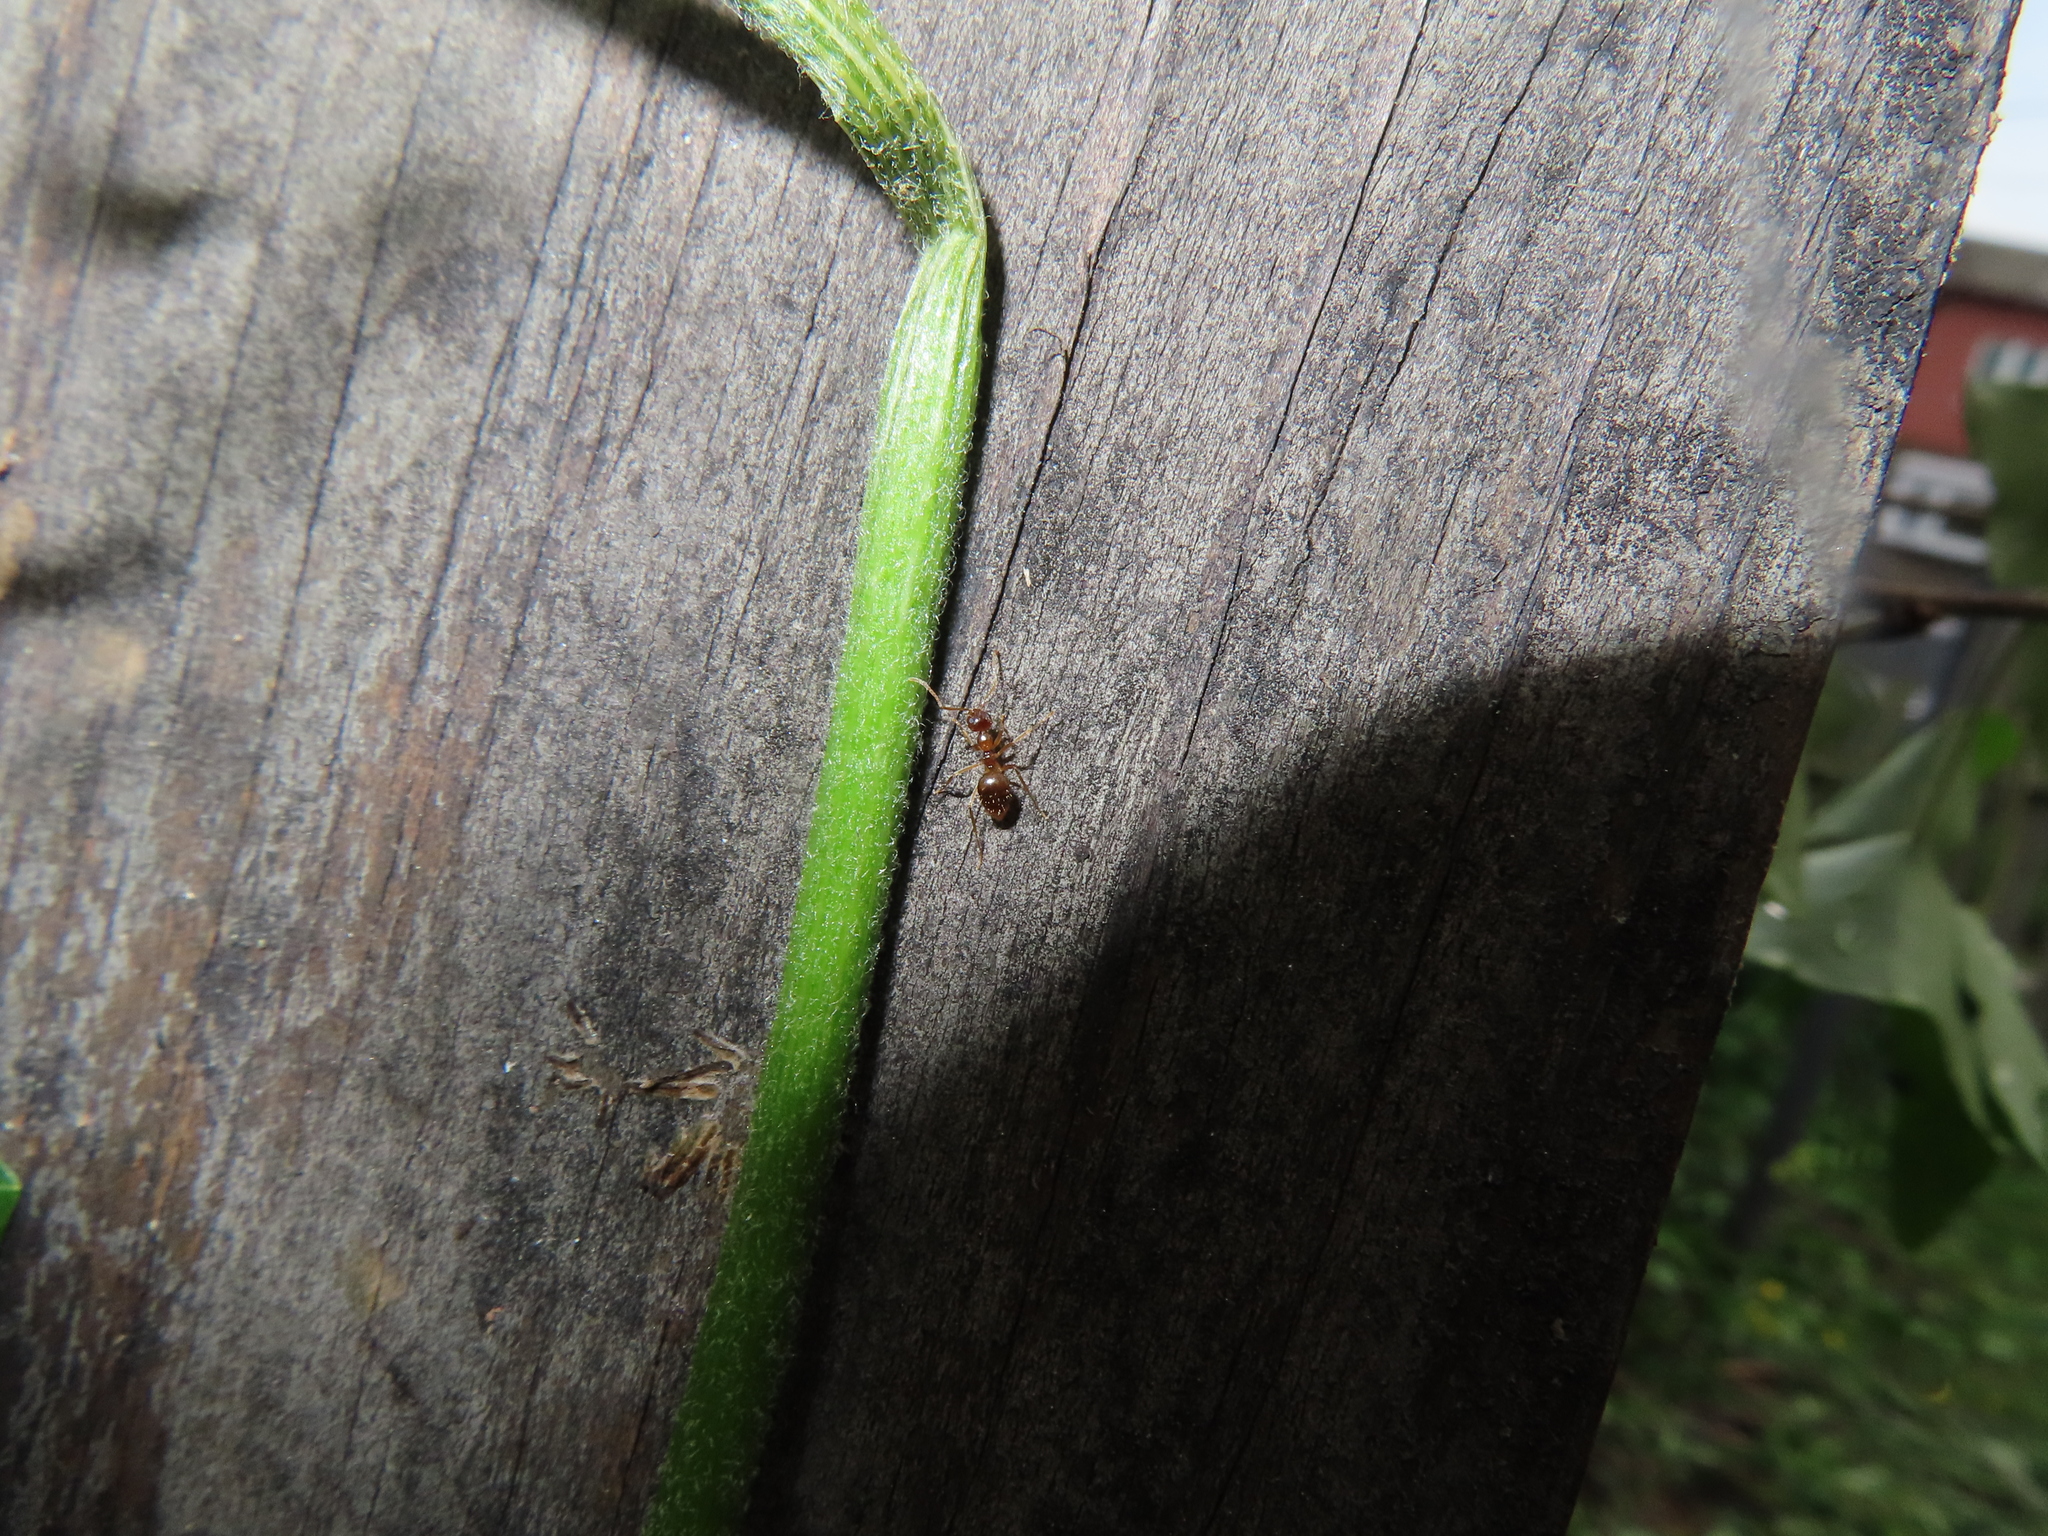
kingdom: Animalia
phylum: Arthropoda
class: Insecta
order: Hymenoptera
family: Formicidae
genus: Prenolepis
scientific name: Prenolepis imparis
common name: Small honey ant
